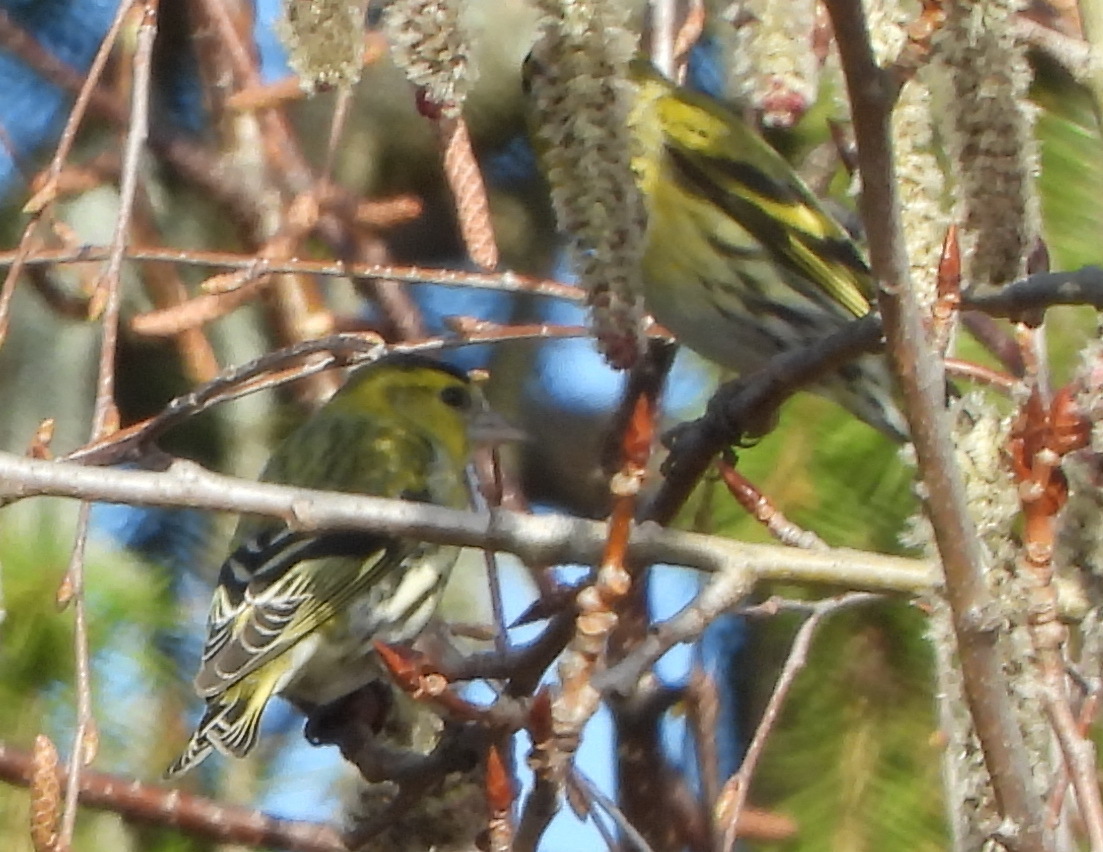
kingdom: Animalia
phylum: Chordata
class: Aves
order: Passeriformes
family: Fringillidae
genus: Spinus
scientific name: Spinus spinus
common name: Eurasian siskin
